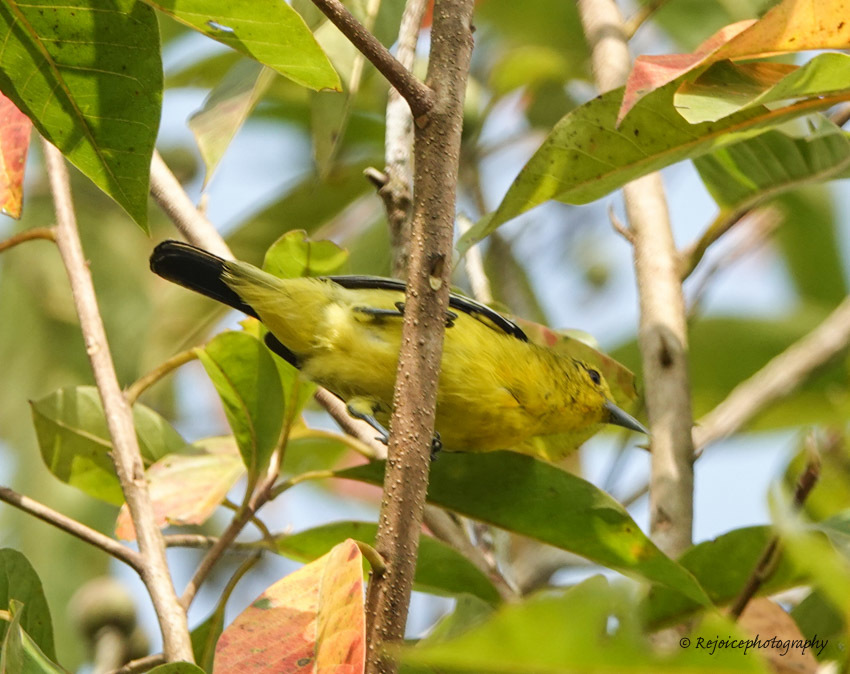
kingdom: Animalia
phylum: Chordata
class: Aves
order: Passeriformes
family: Aegithinidae
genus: Aegithina
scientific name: Aegithina tiphia
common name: Common iora
